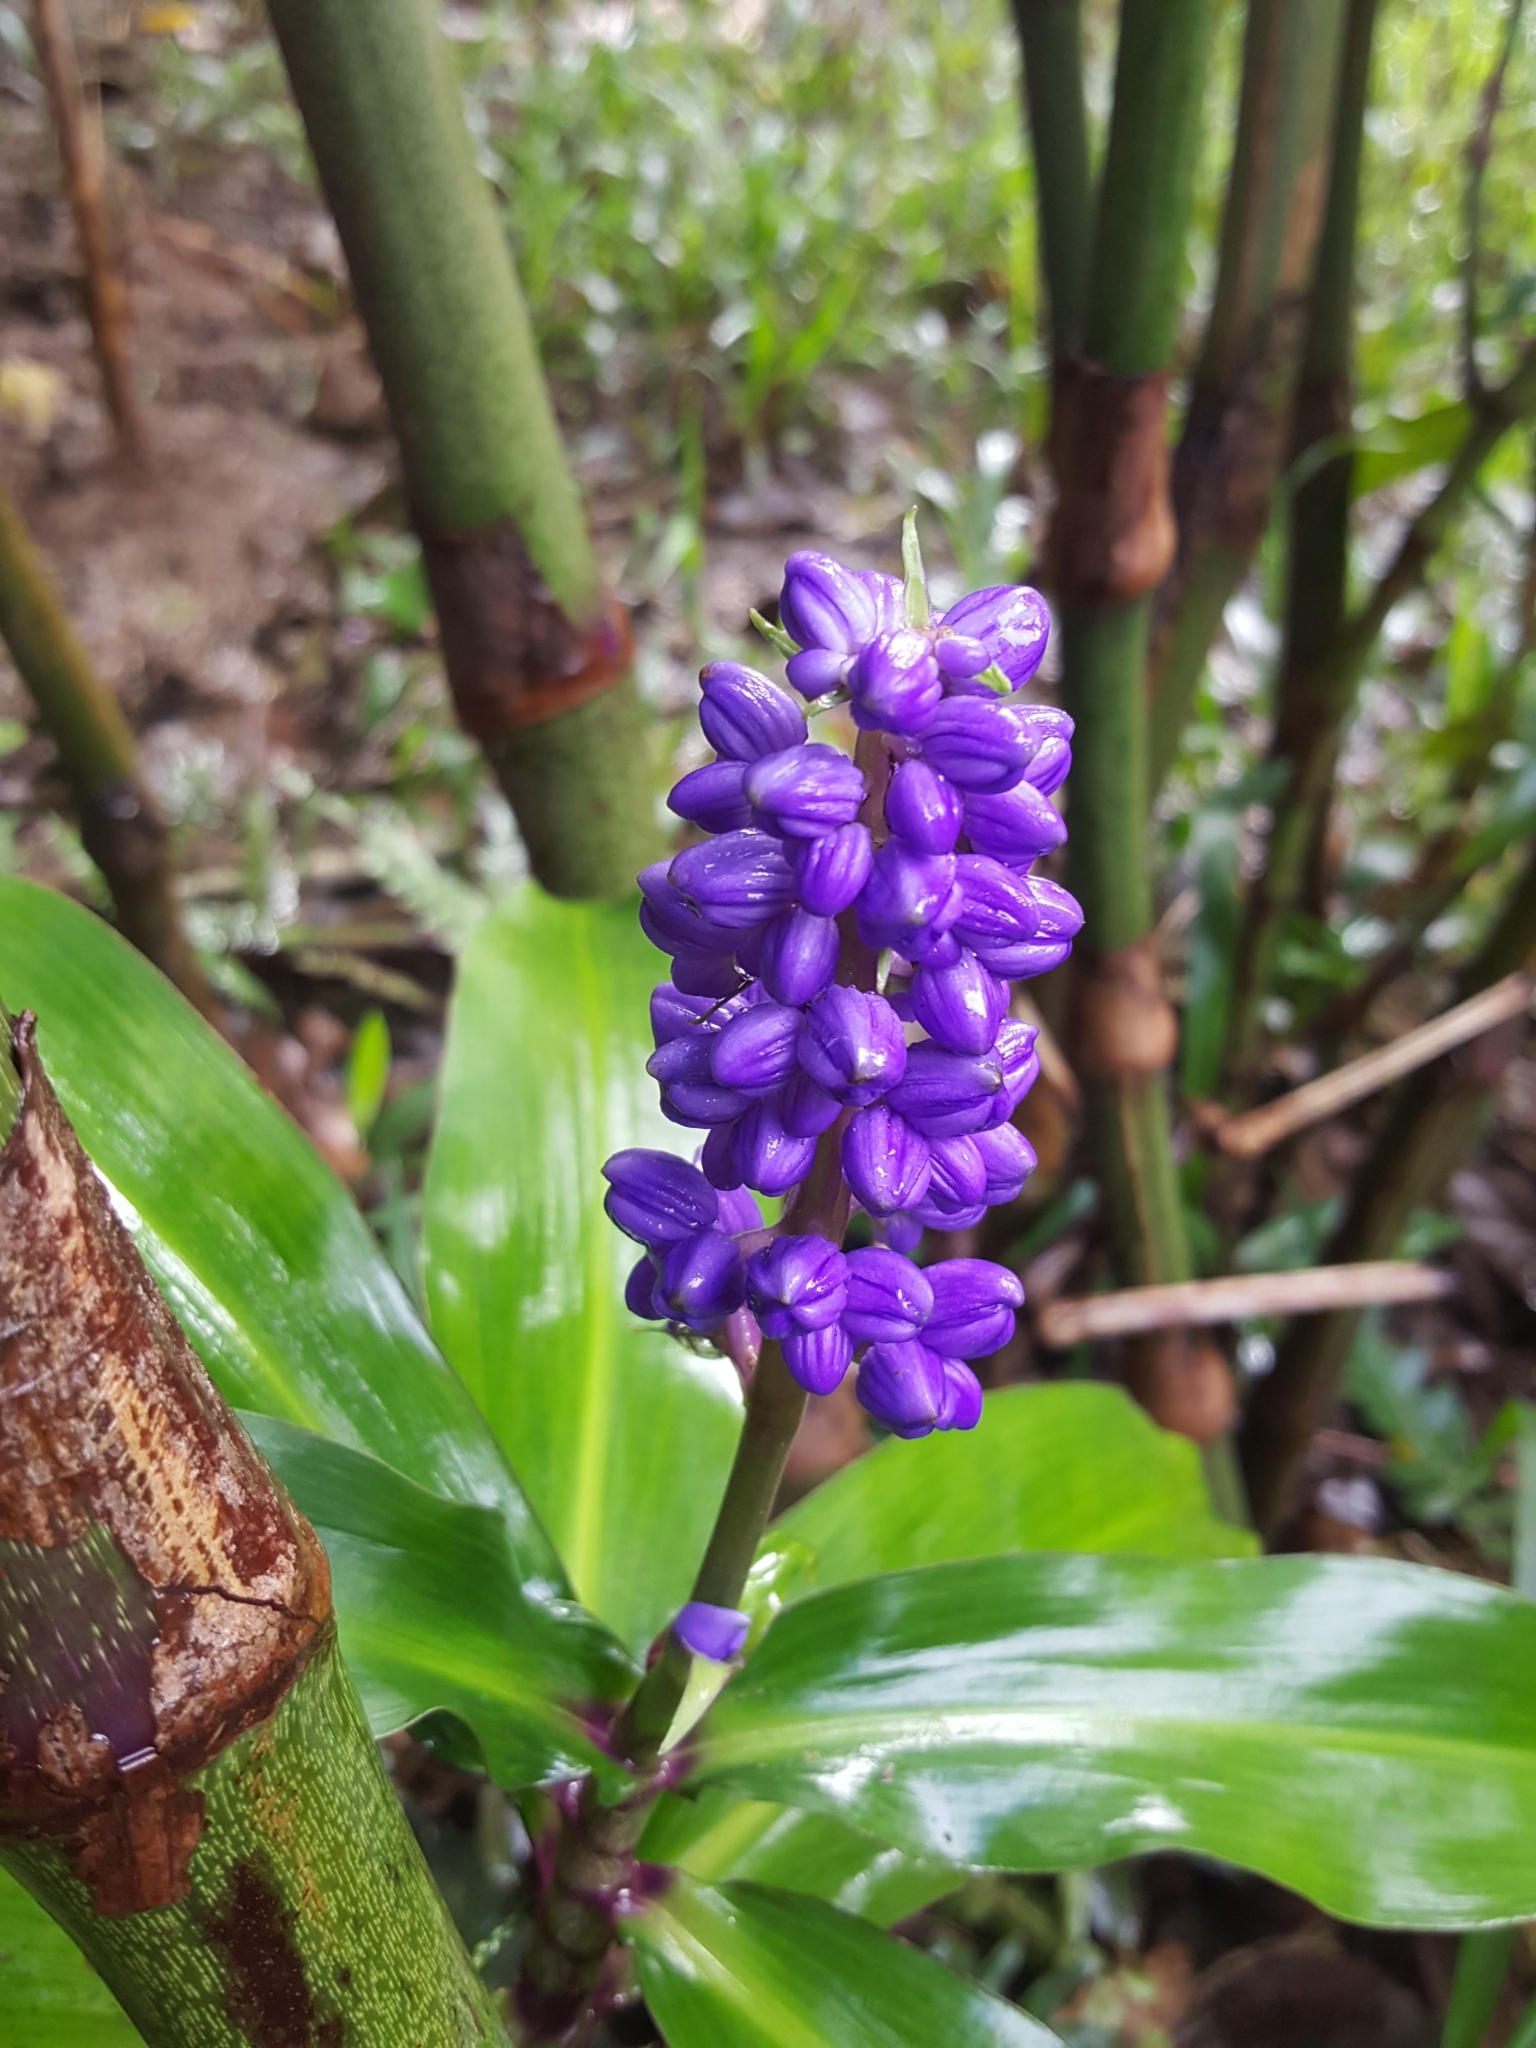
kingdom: Plantae
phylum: Tracheophyta
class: Liliopsida
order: Commelinales
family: Commelinaceae
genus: Dichorisandra
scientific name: Dichorisandra thyrsiflora
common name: Blue-ginger
